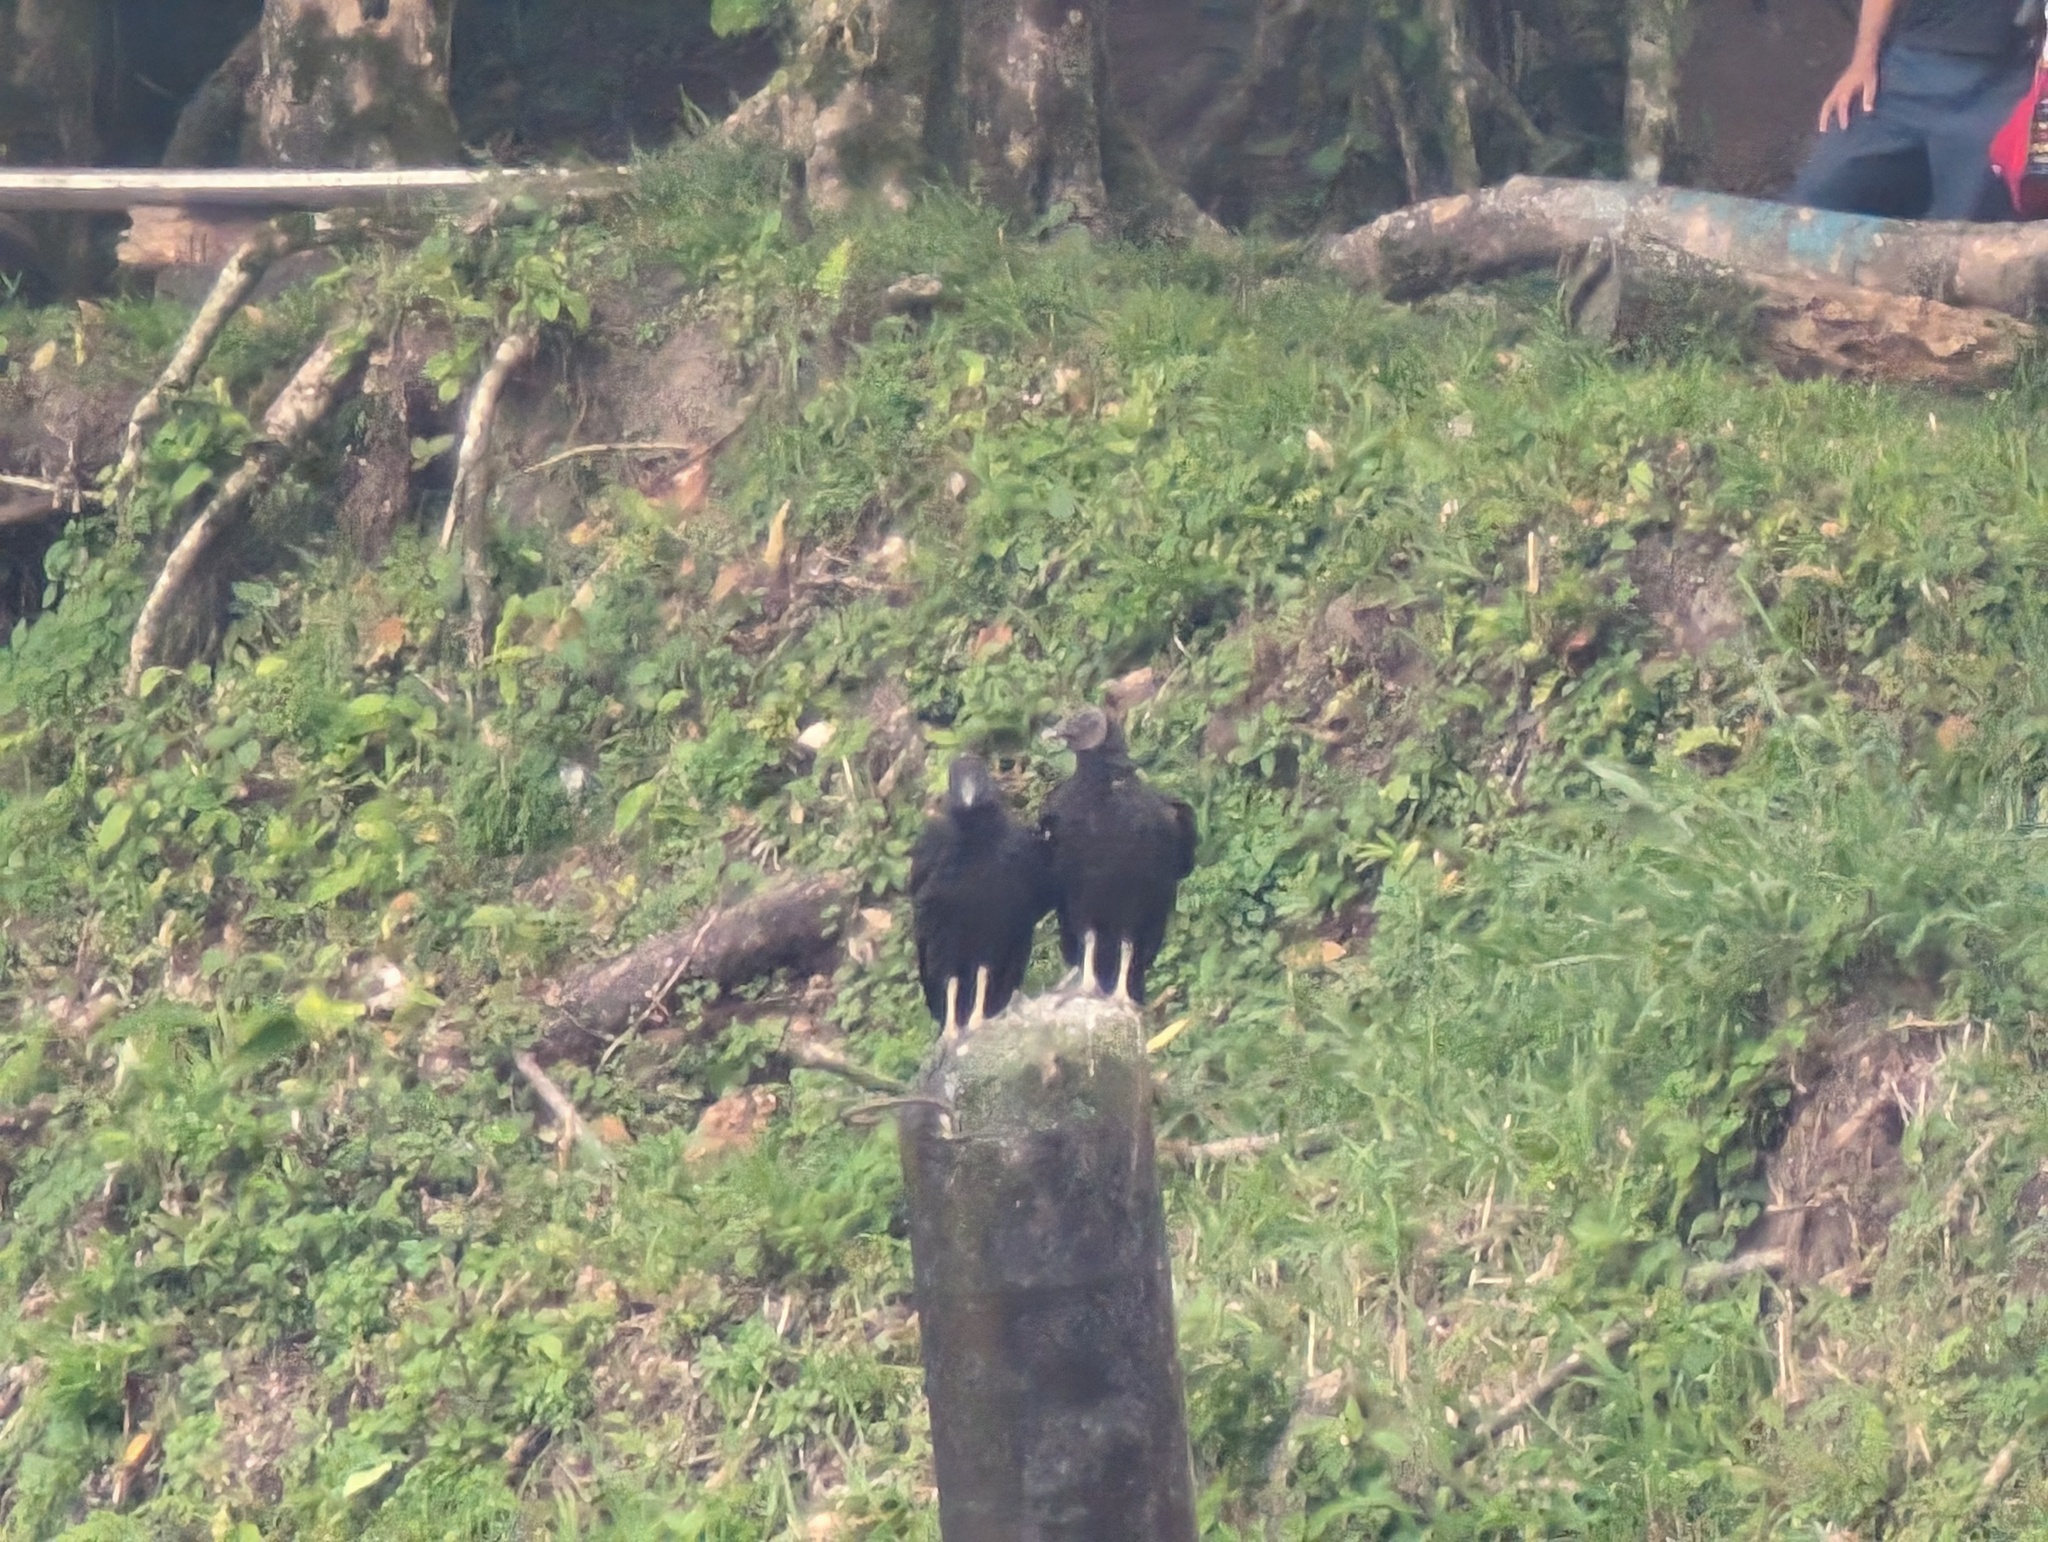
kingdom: Animalia
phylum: Chordata
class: Aves
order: Accipitriformes
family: Cathartidae
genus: Coragyps
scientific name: Coragyps atratus
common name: Black vulture
